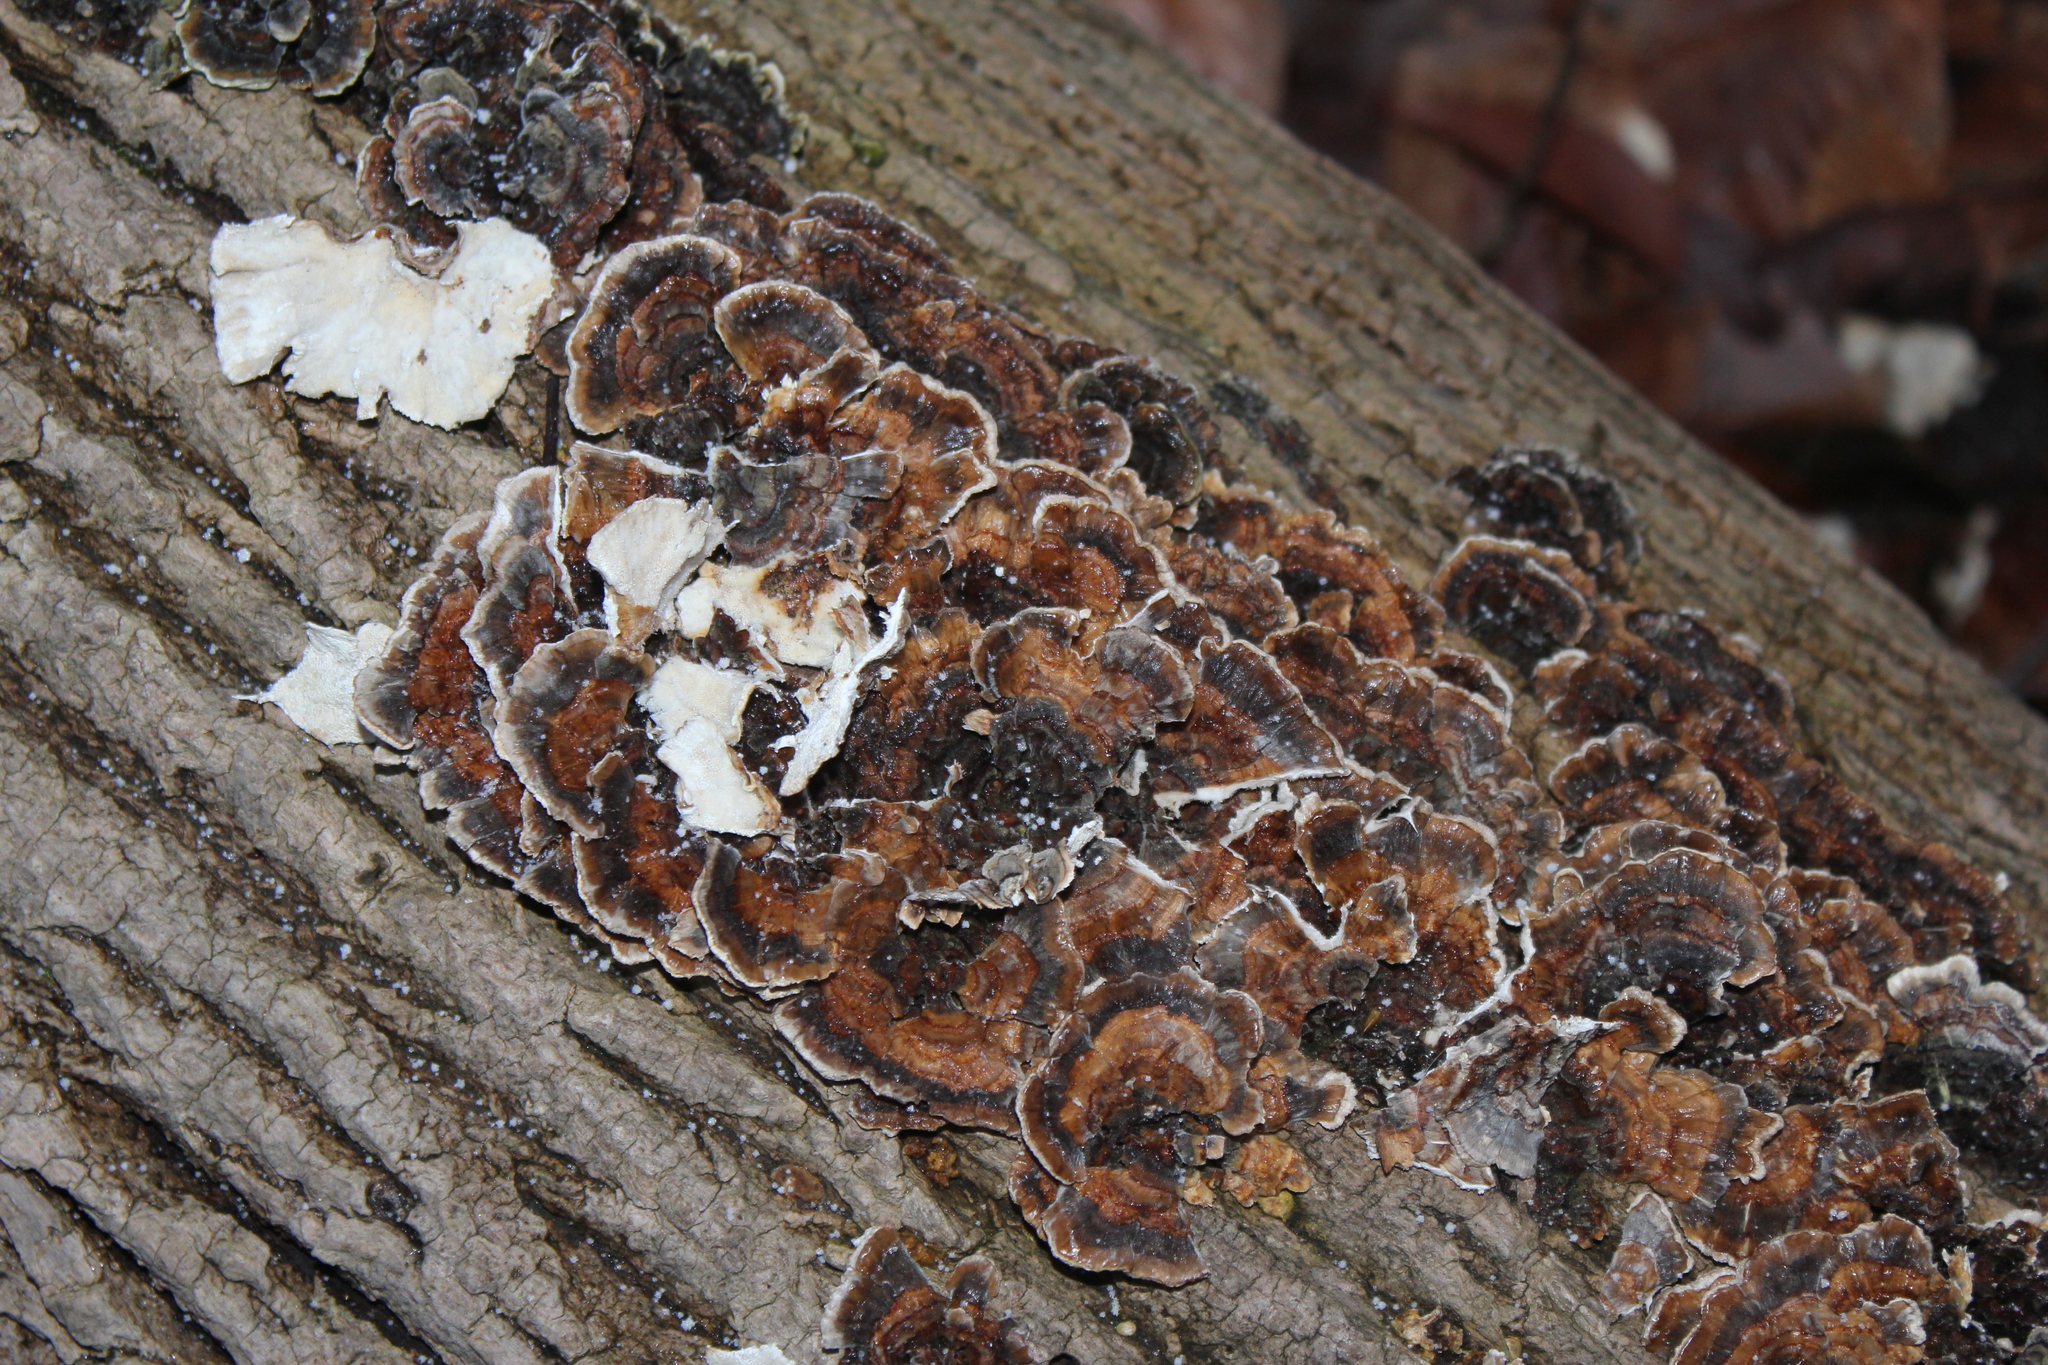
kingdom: Fungi
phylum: Basidiomycota
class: Agaricomycetes
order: Polyporales
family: Polyporaceae
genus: Trametes
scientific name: Trametes versicolor
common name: Turkeytail
